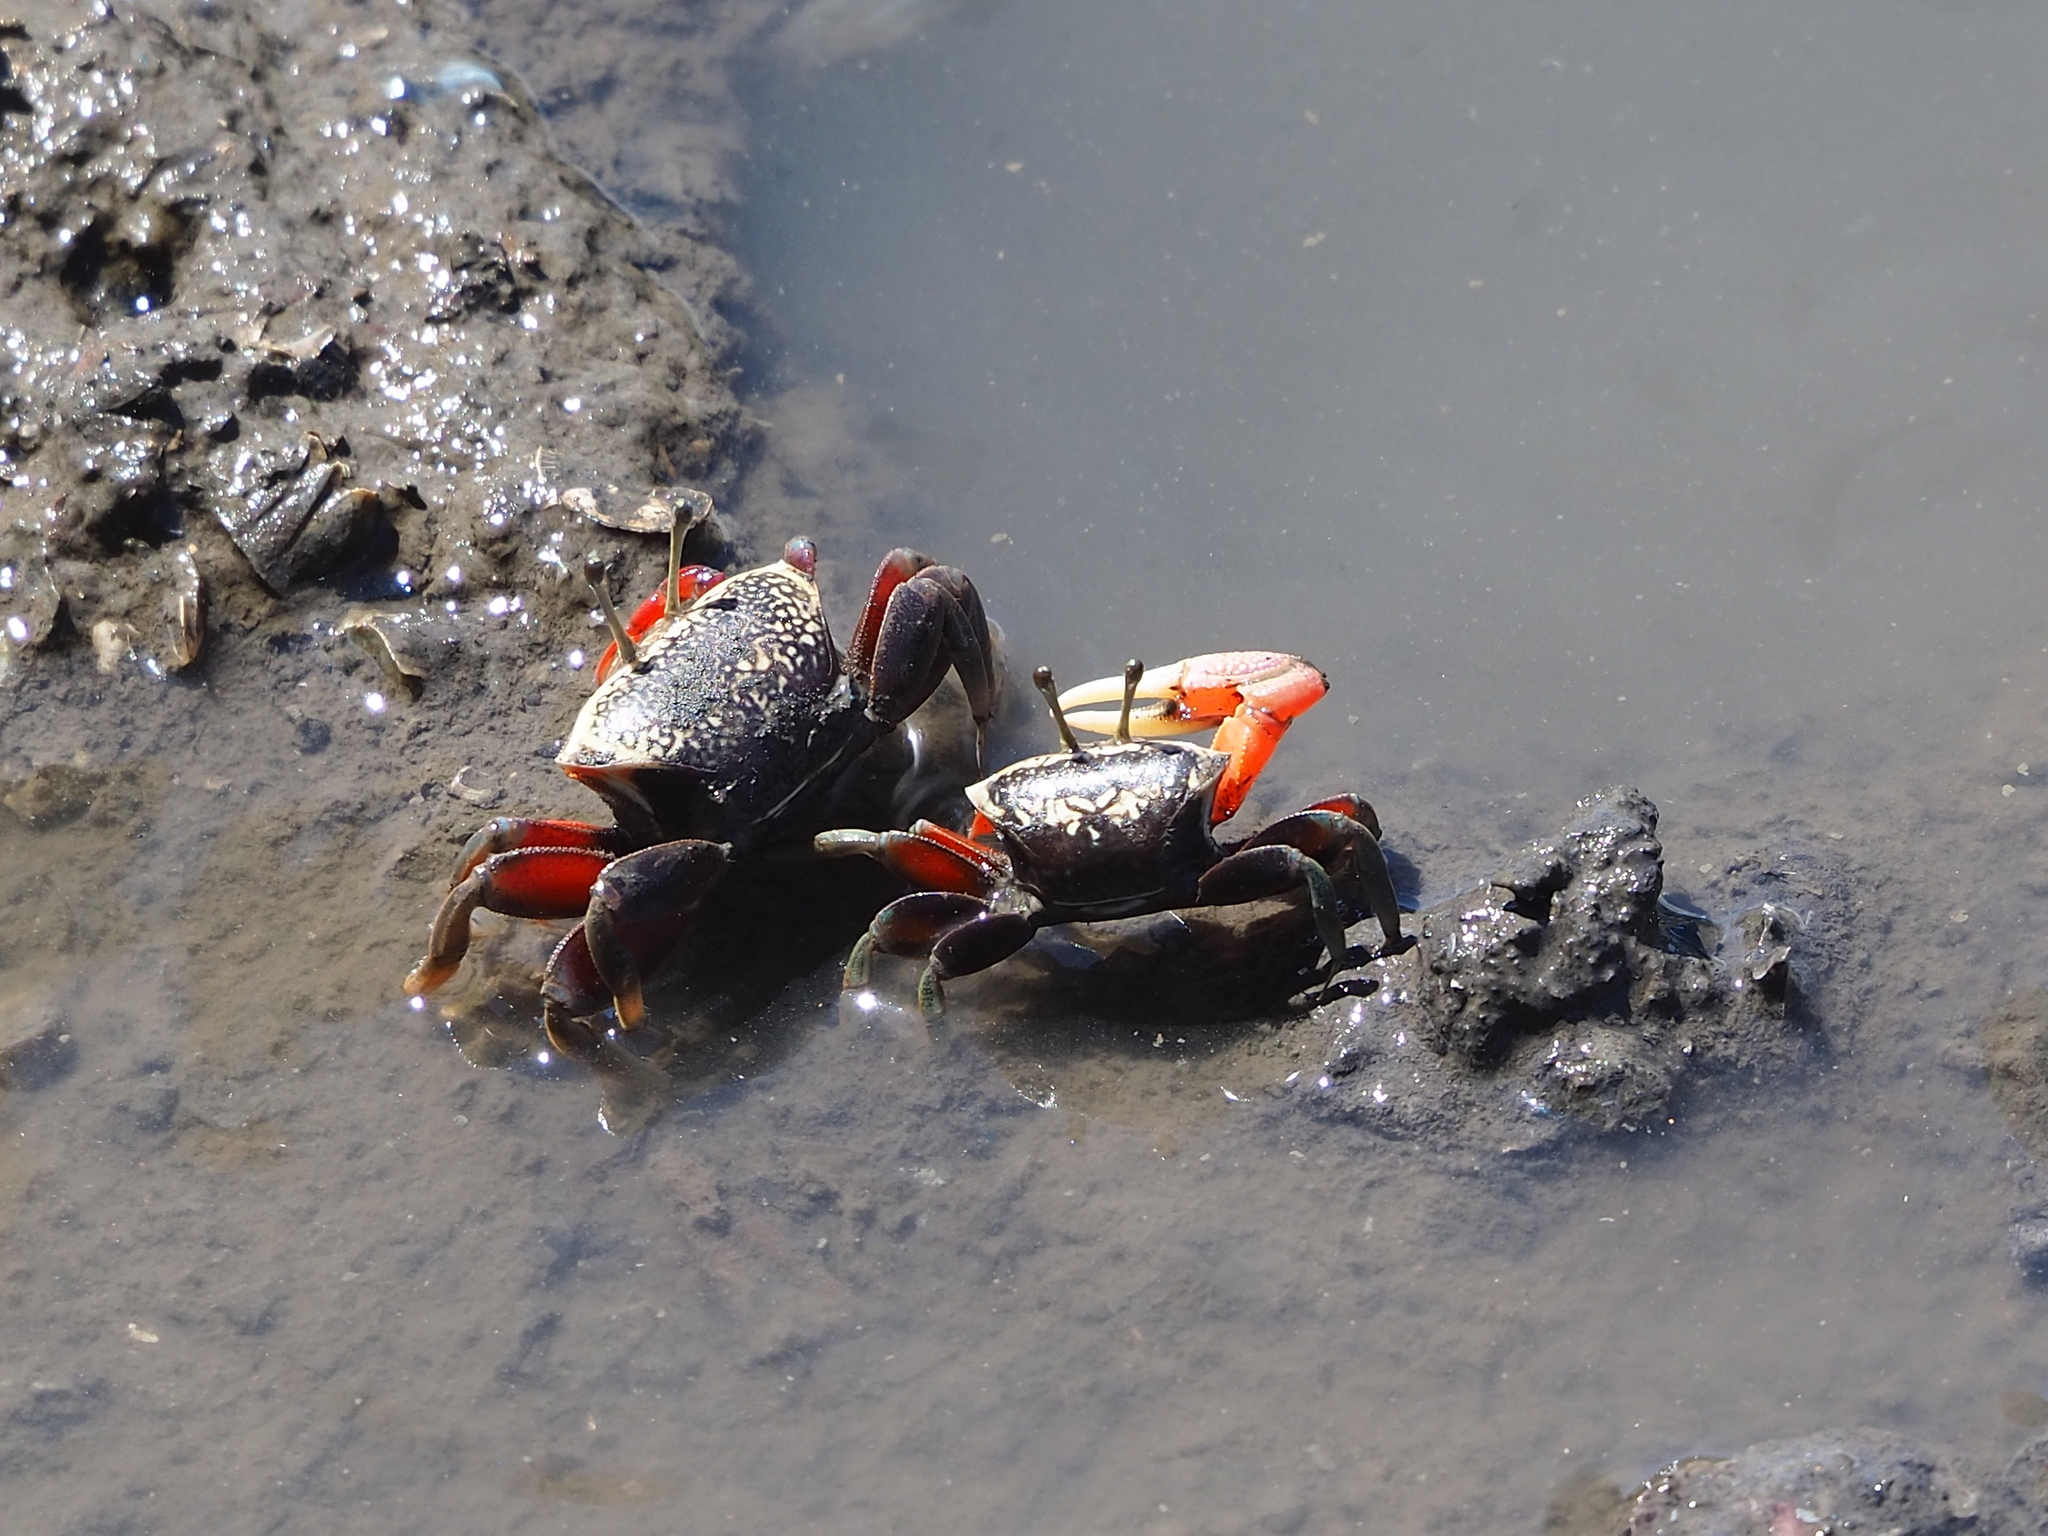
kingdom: Animalia
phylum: Arthropoda
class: Malacostraca
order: Decapoda
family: Ocypodidae
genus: Tubuca
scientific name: Tubuca arcuata
